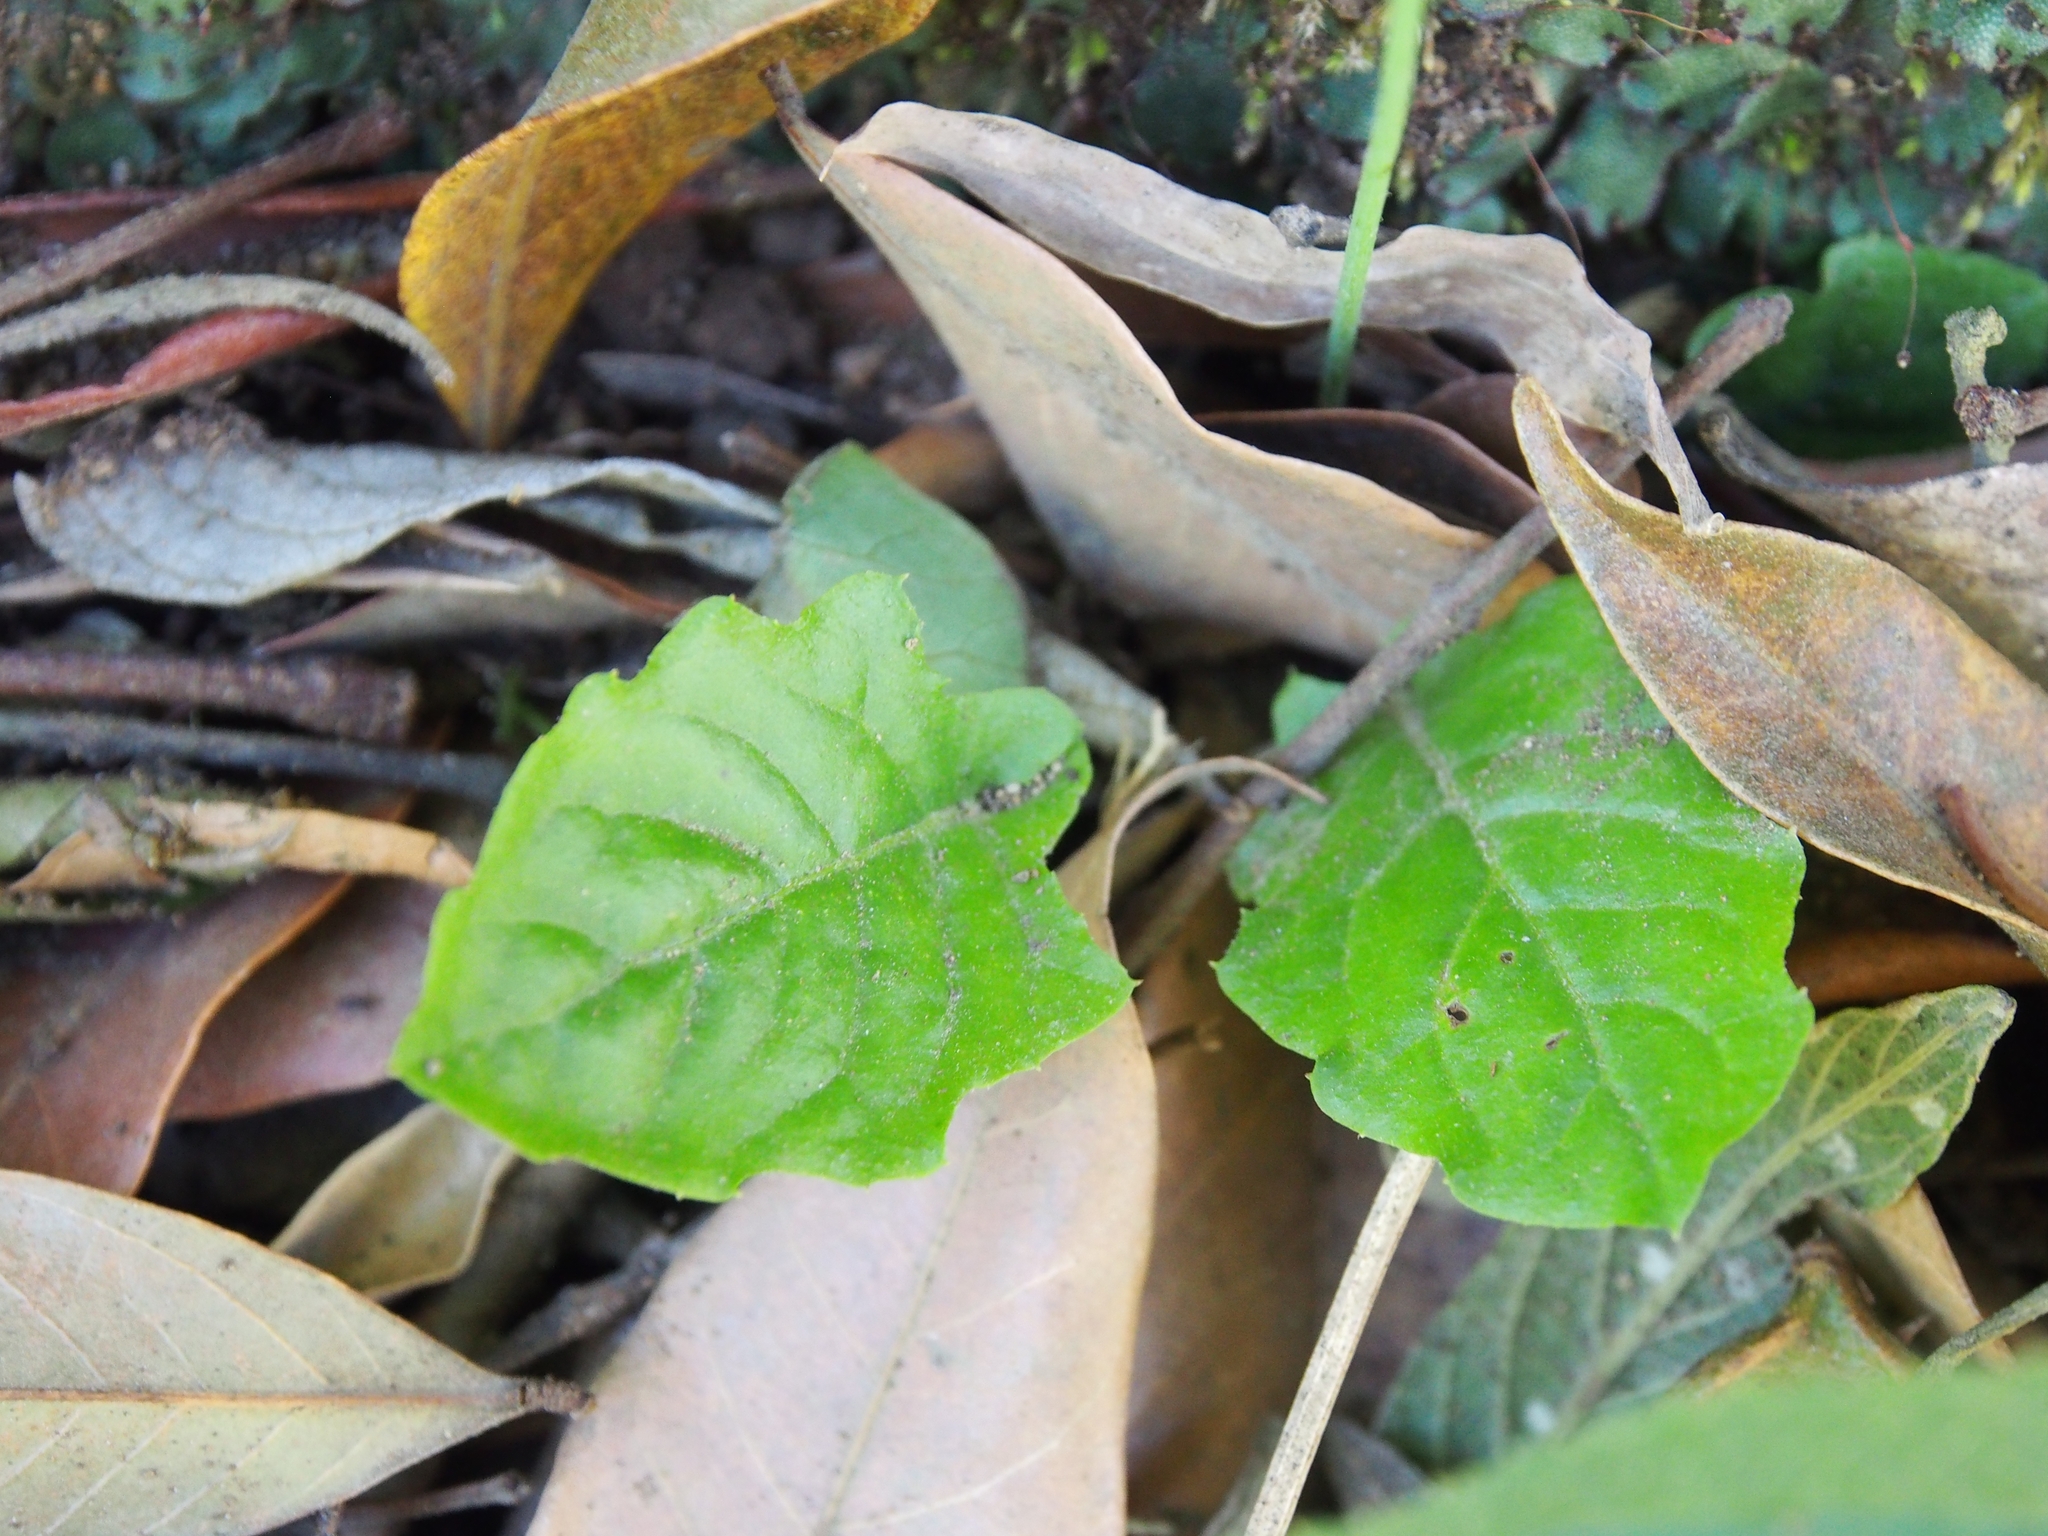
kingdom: Plantae
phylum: Tracheophyta
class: Magnoliopsida
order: Asterales
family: Asteraceae
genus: Youngia
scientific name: Youngia japonica
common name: Oriental false hawksbeard
